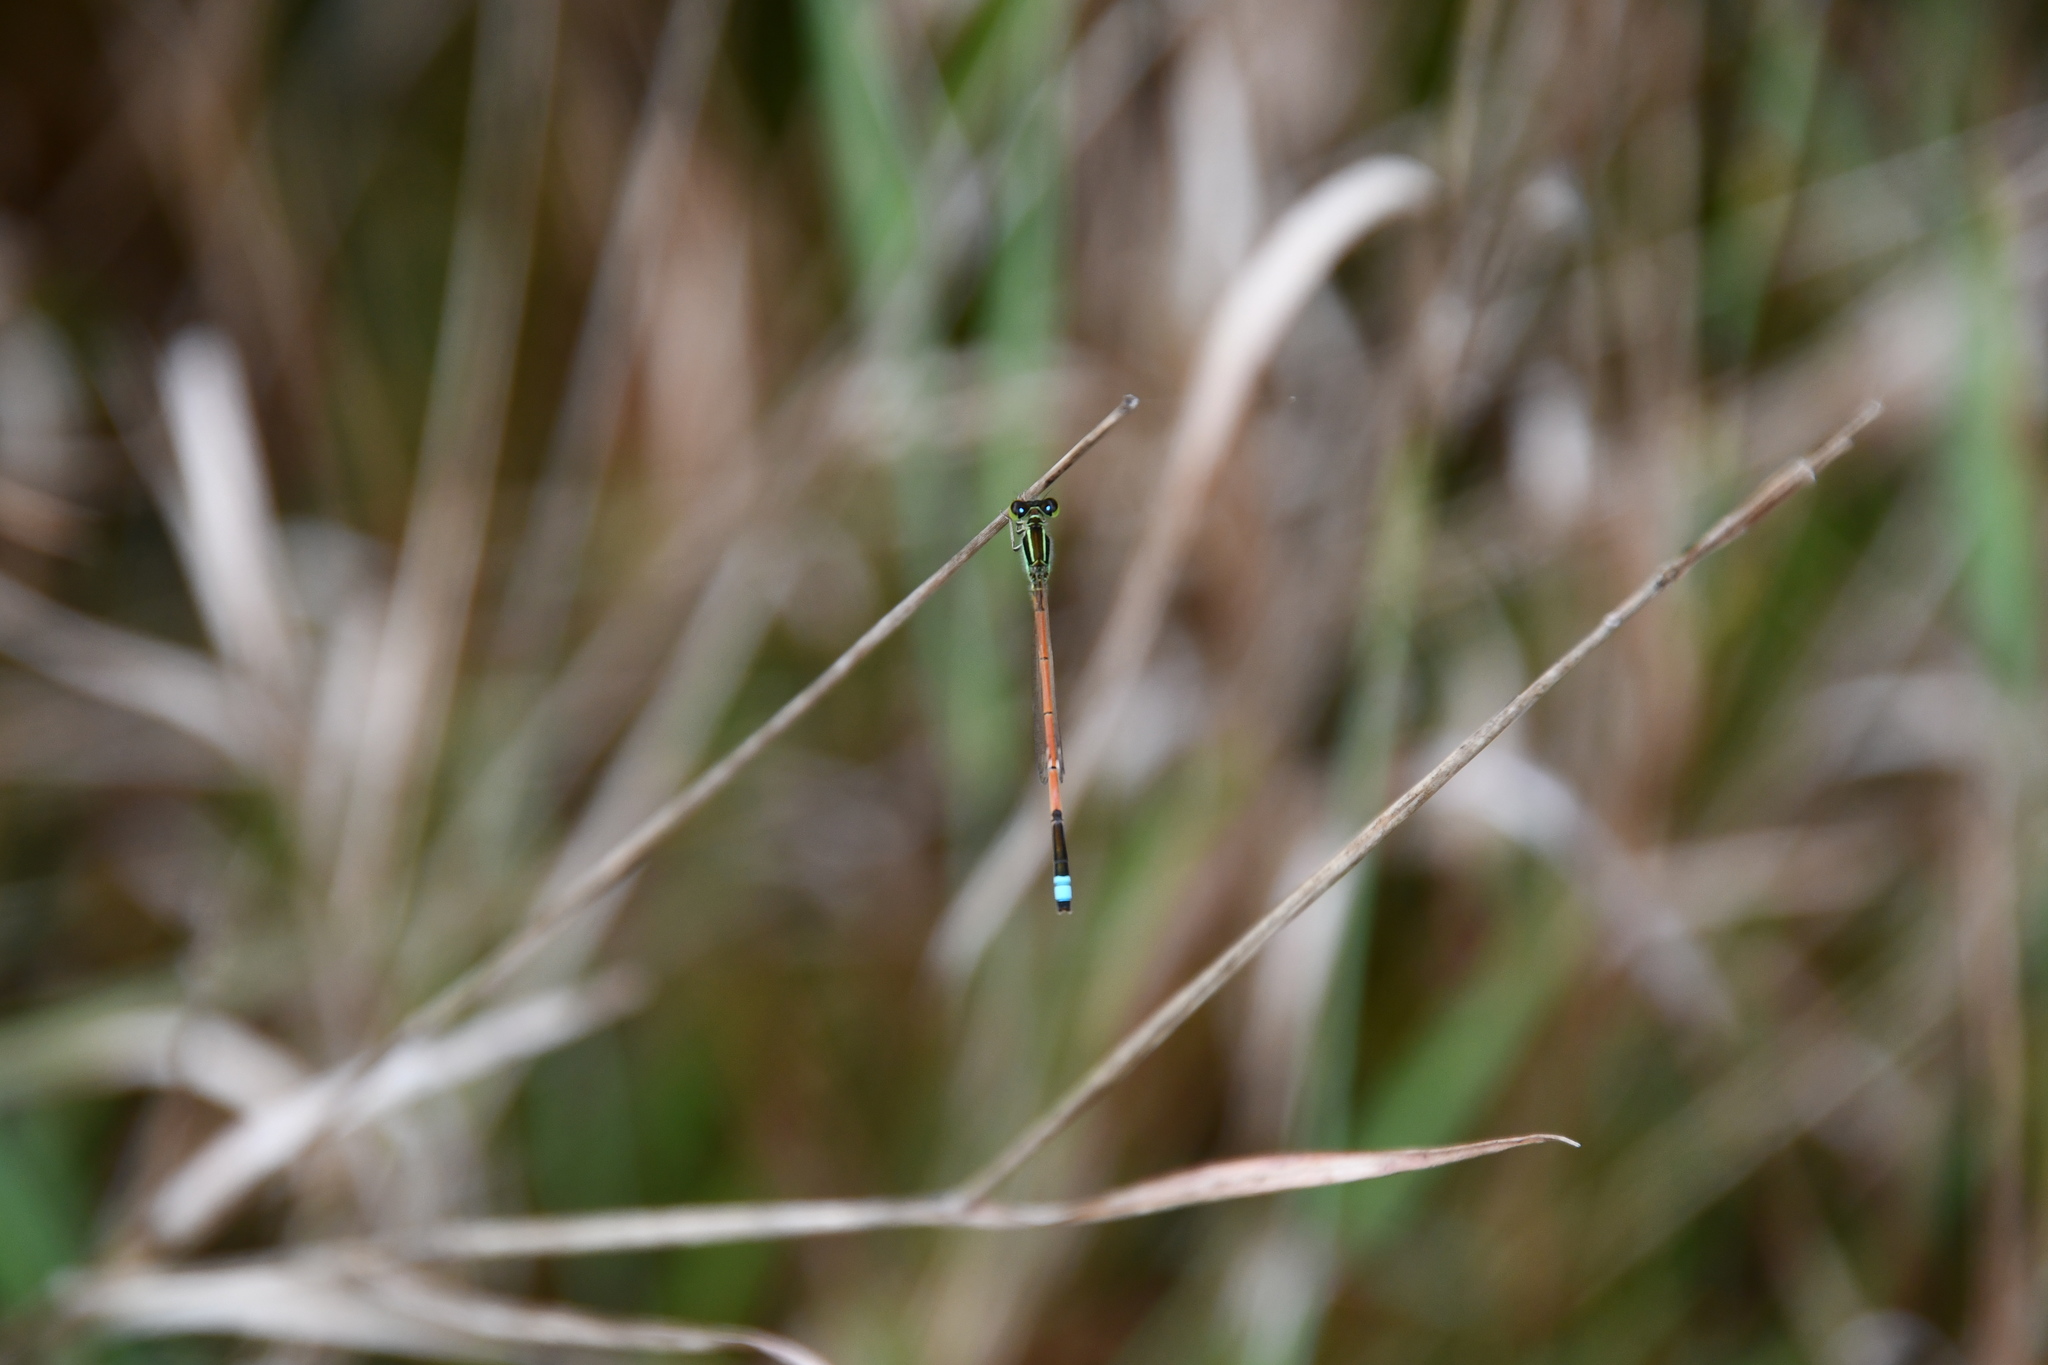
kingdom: Animalia
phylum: Arthropoda
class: Insecta
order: Odonata
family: Coenagrionidae
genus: Ischnura
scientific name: Ischnura aurora
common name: Gossamer damselfly
